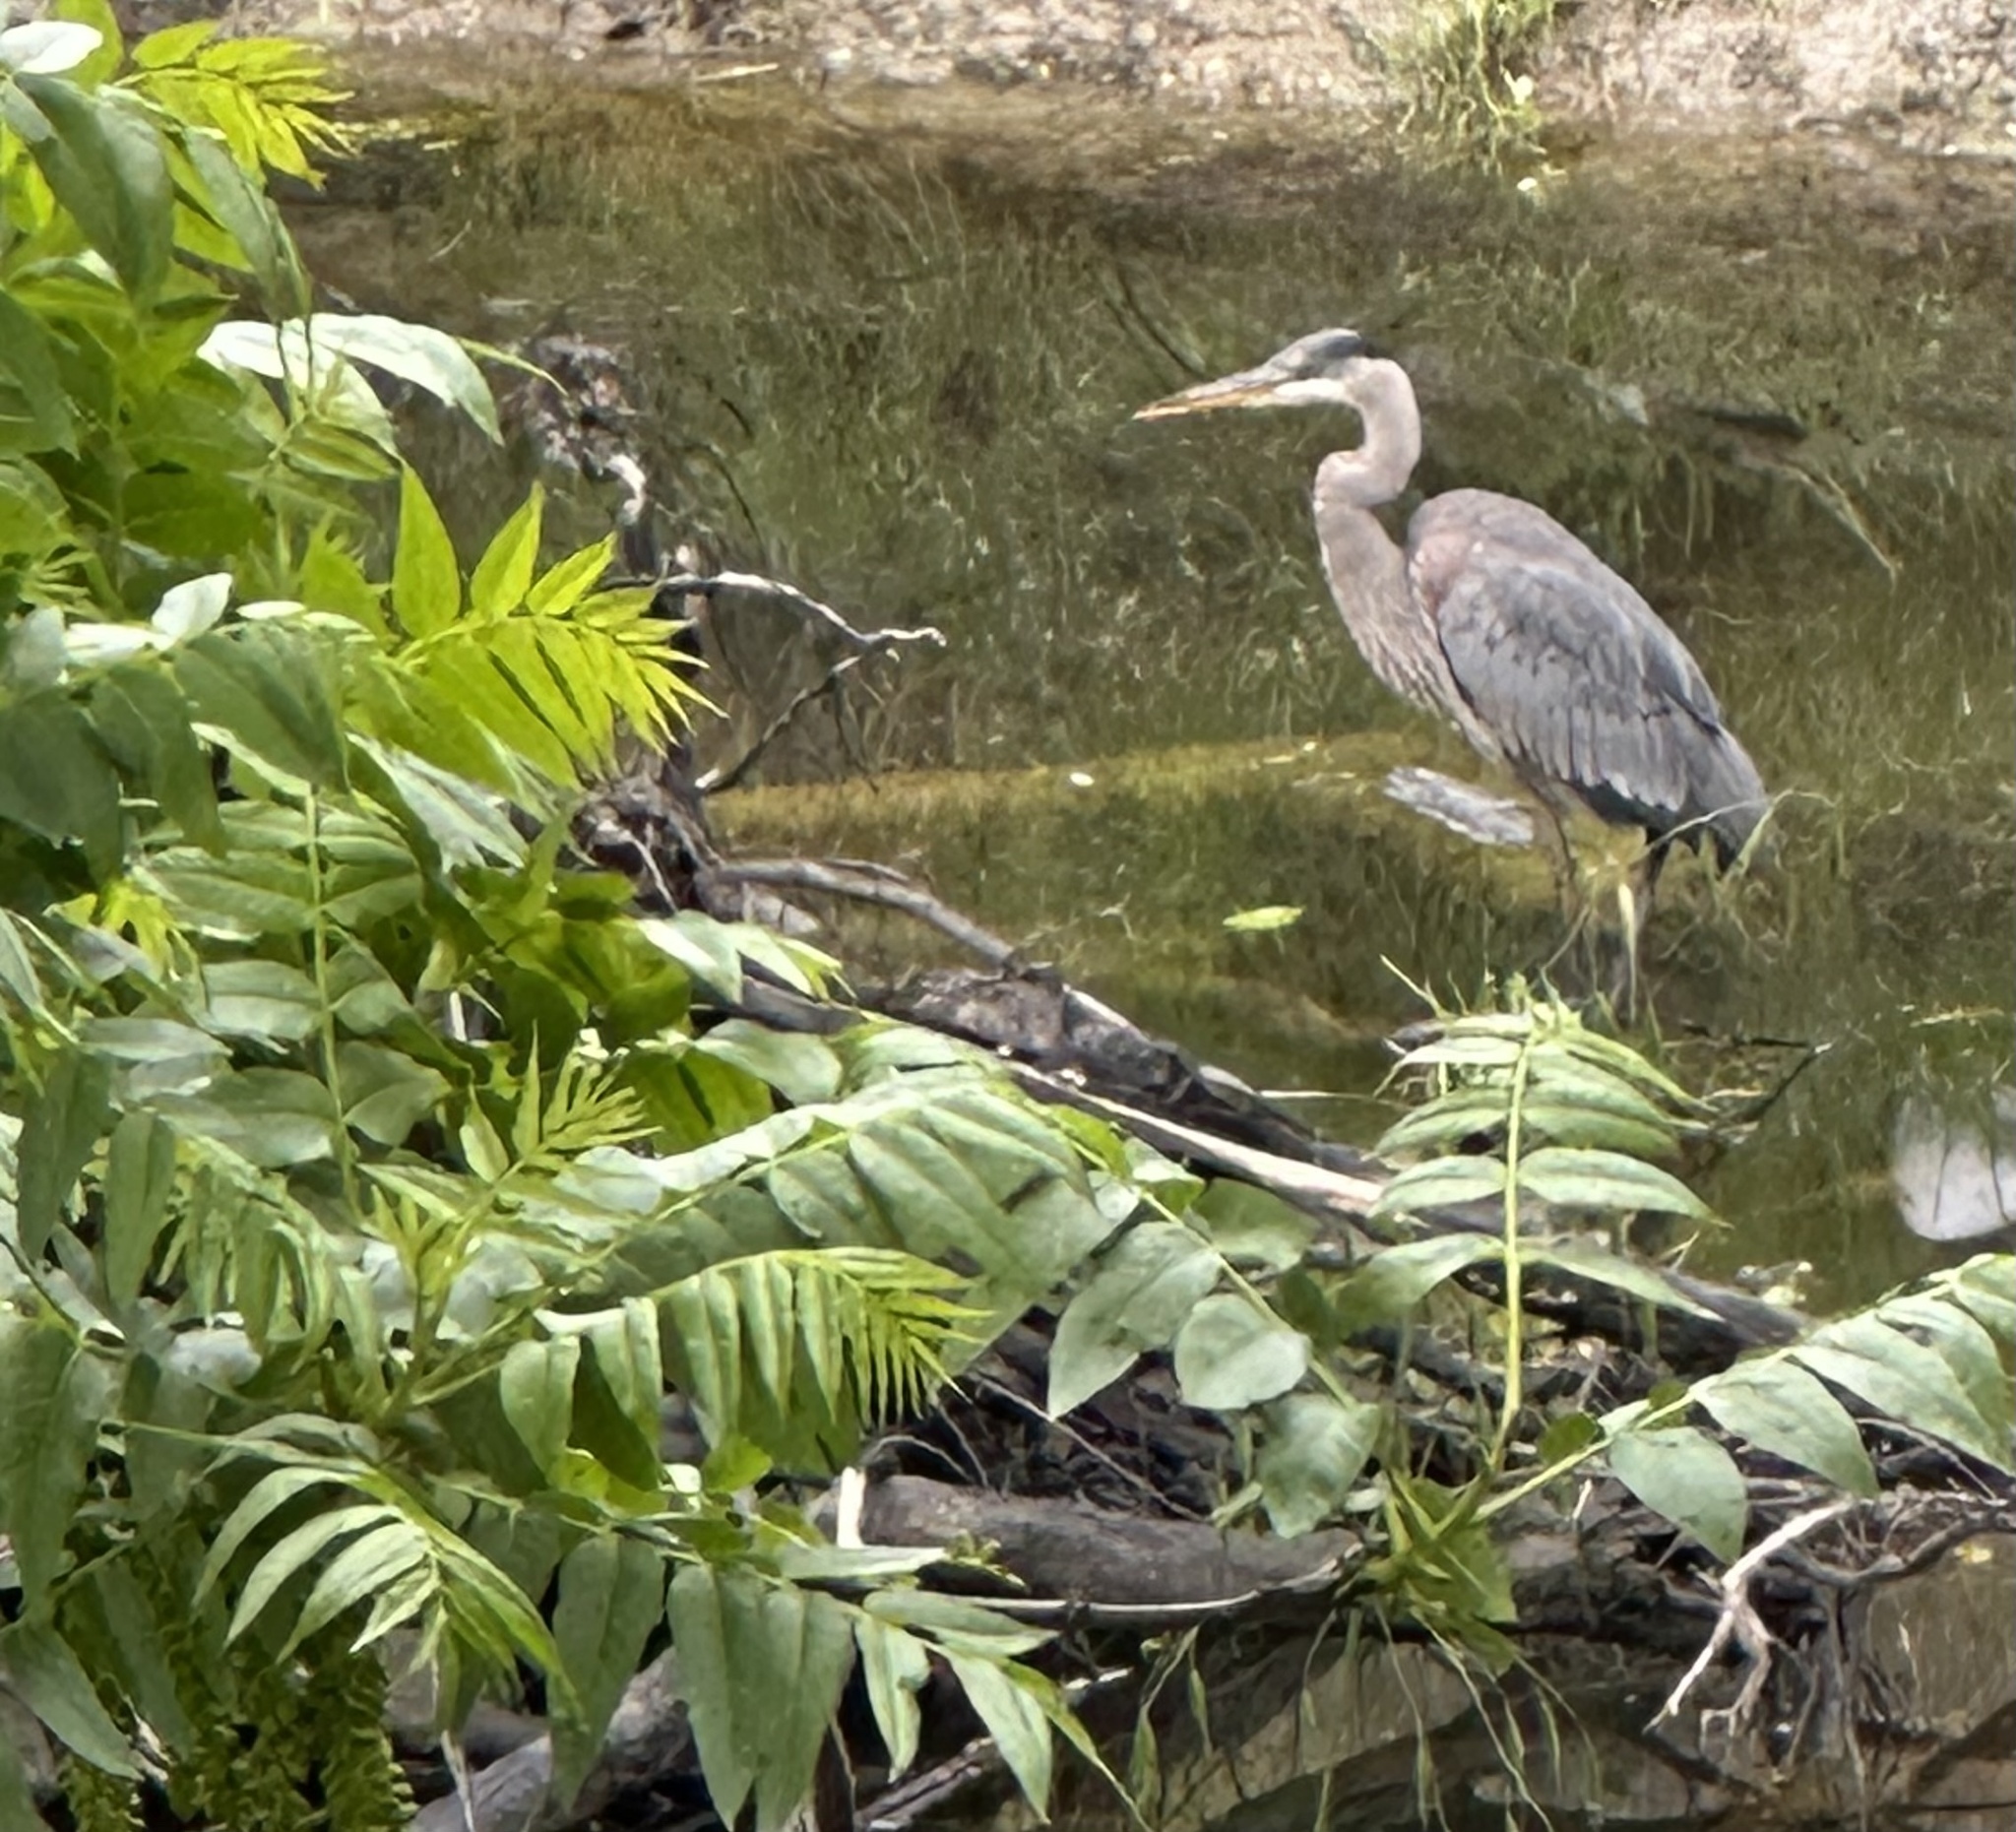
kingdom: Animalia
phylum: Chordata
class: Aves
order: Pelecaniformes
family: Ardeidae
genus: Ardea
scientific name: Ardea herodias
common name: Great blue heron
